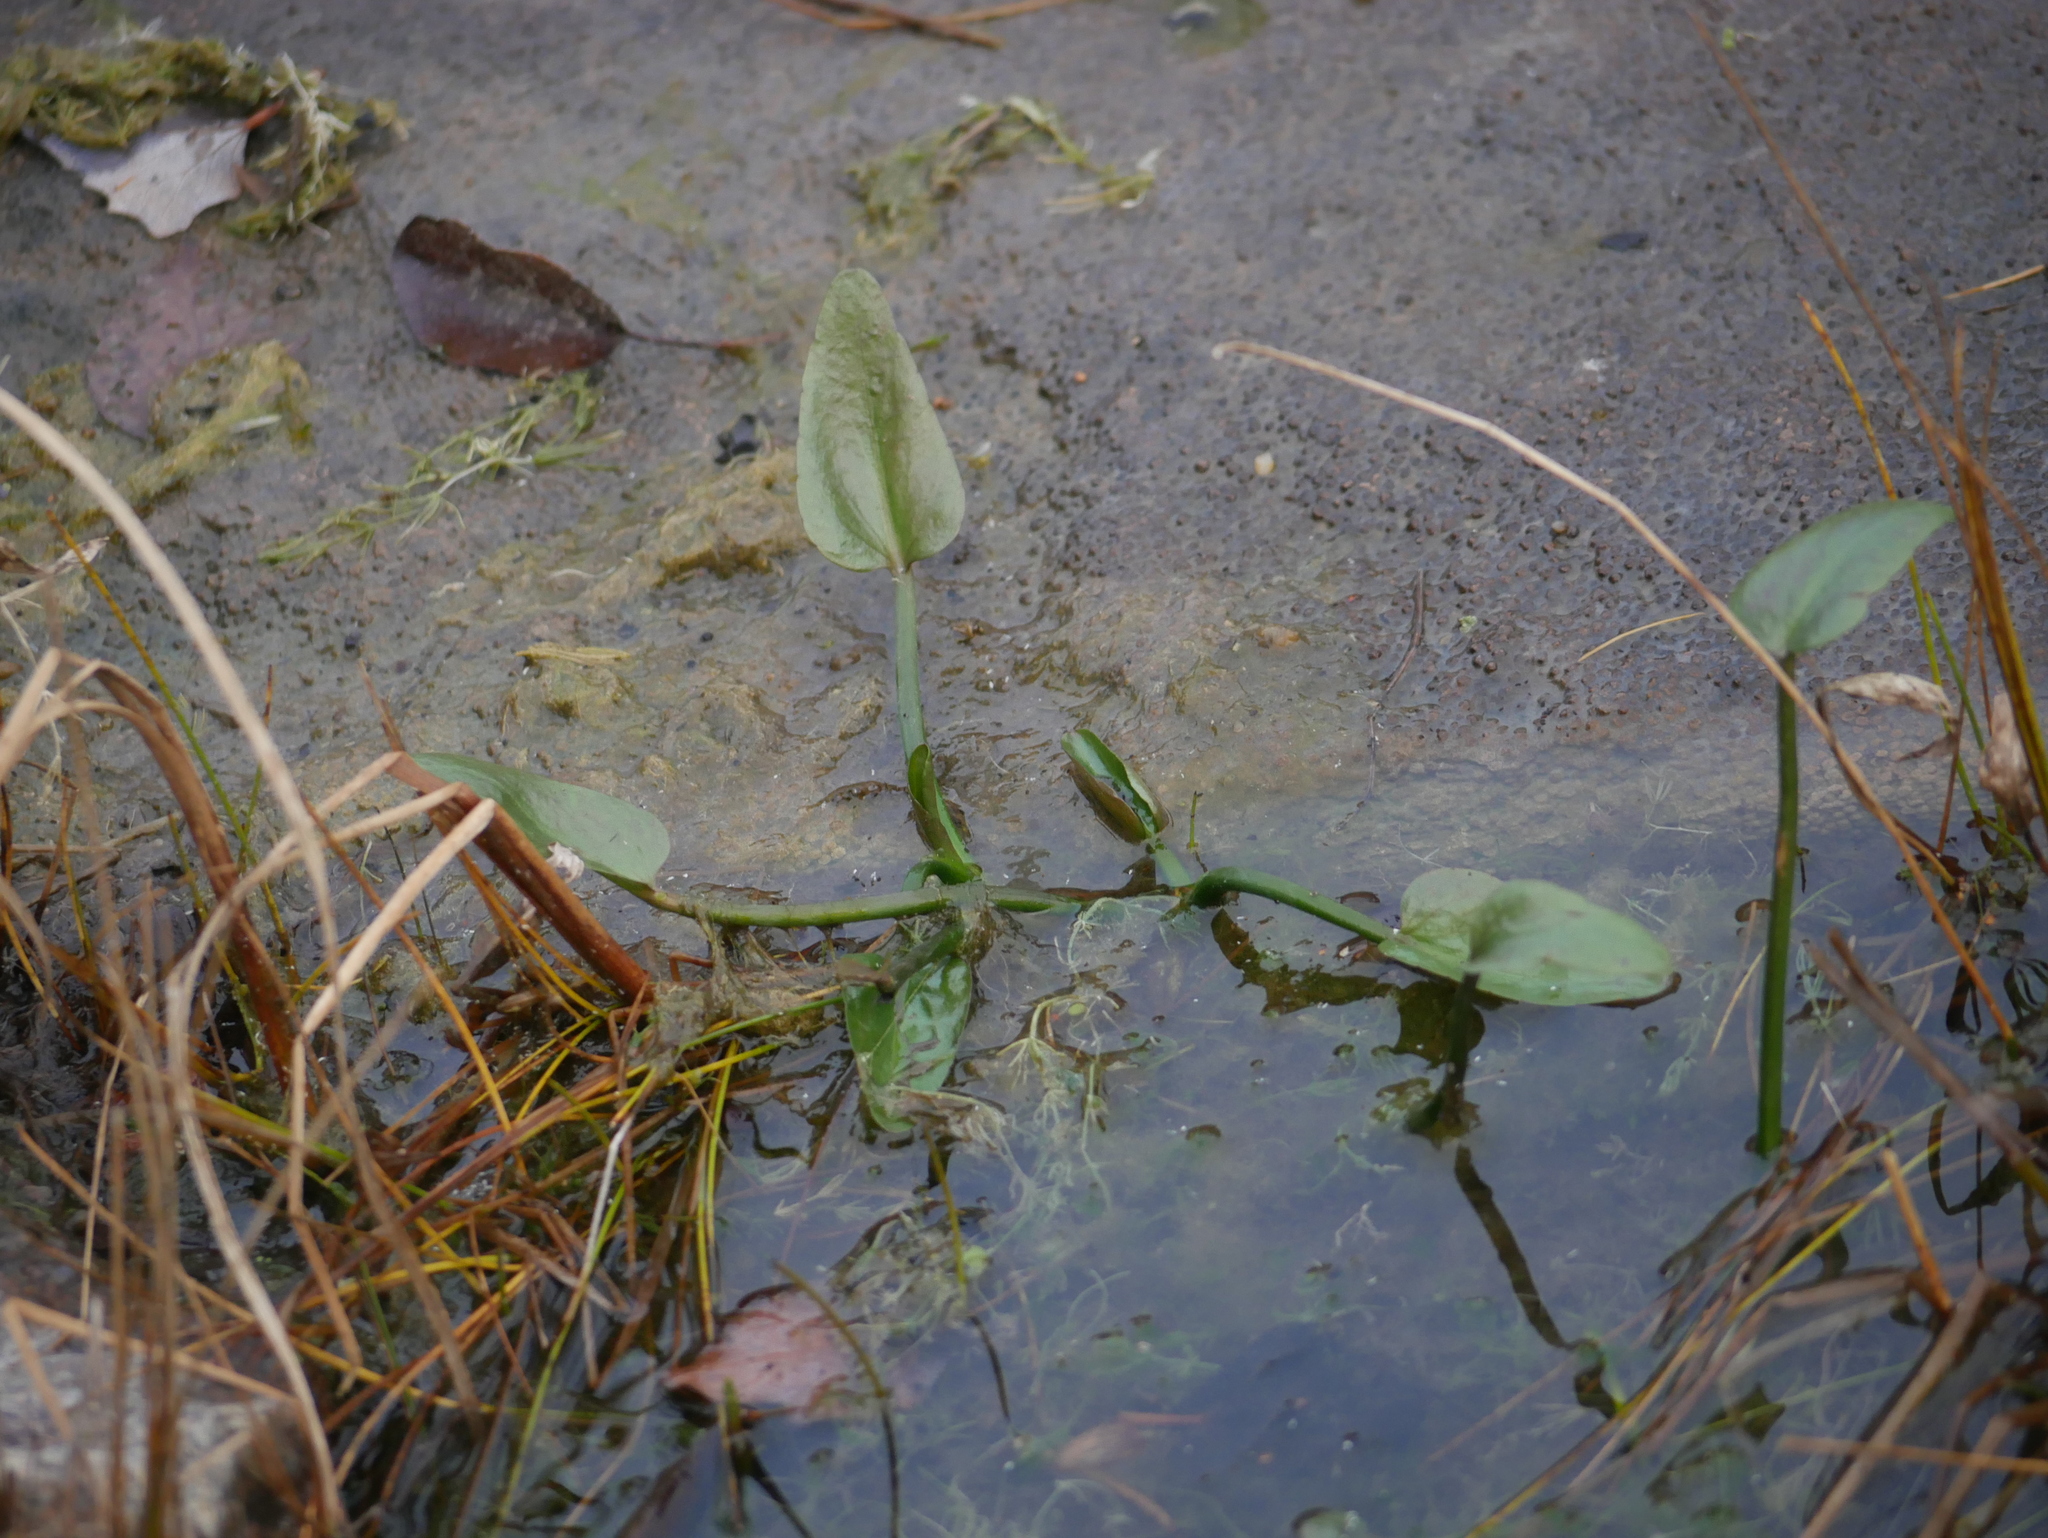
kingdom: Plantae
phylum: Tracheophyta
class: Liliopsida
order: Alismatales
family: Alismataceae
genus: Alisma
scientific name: Alisma plantago-aquatica
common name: Water-plantain
